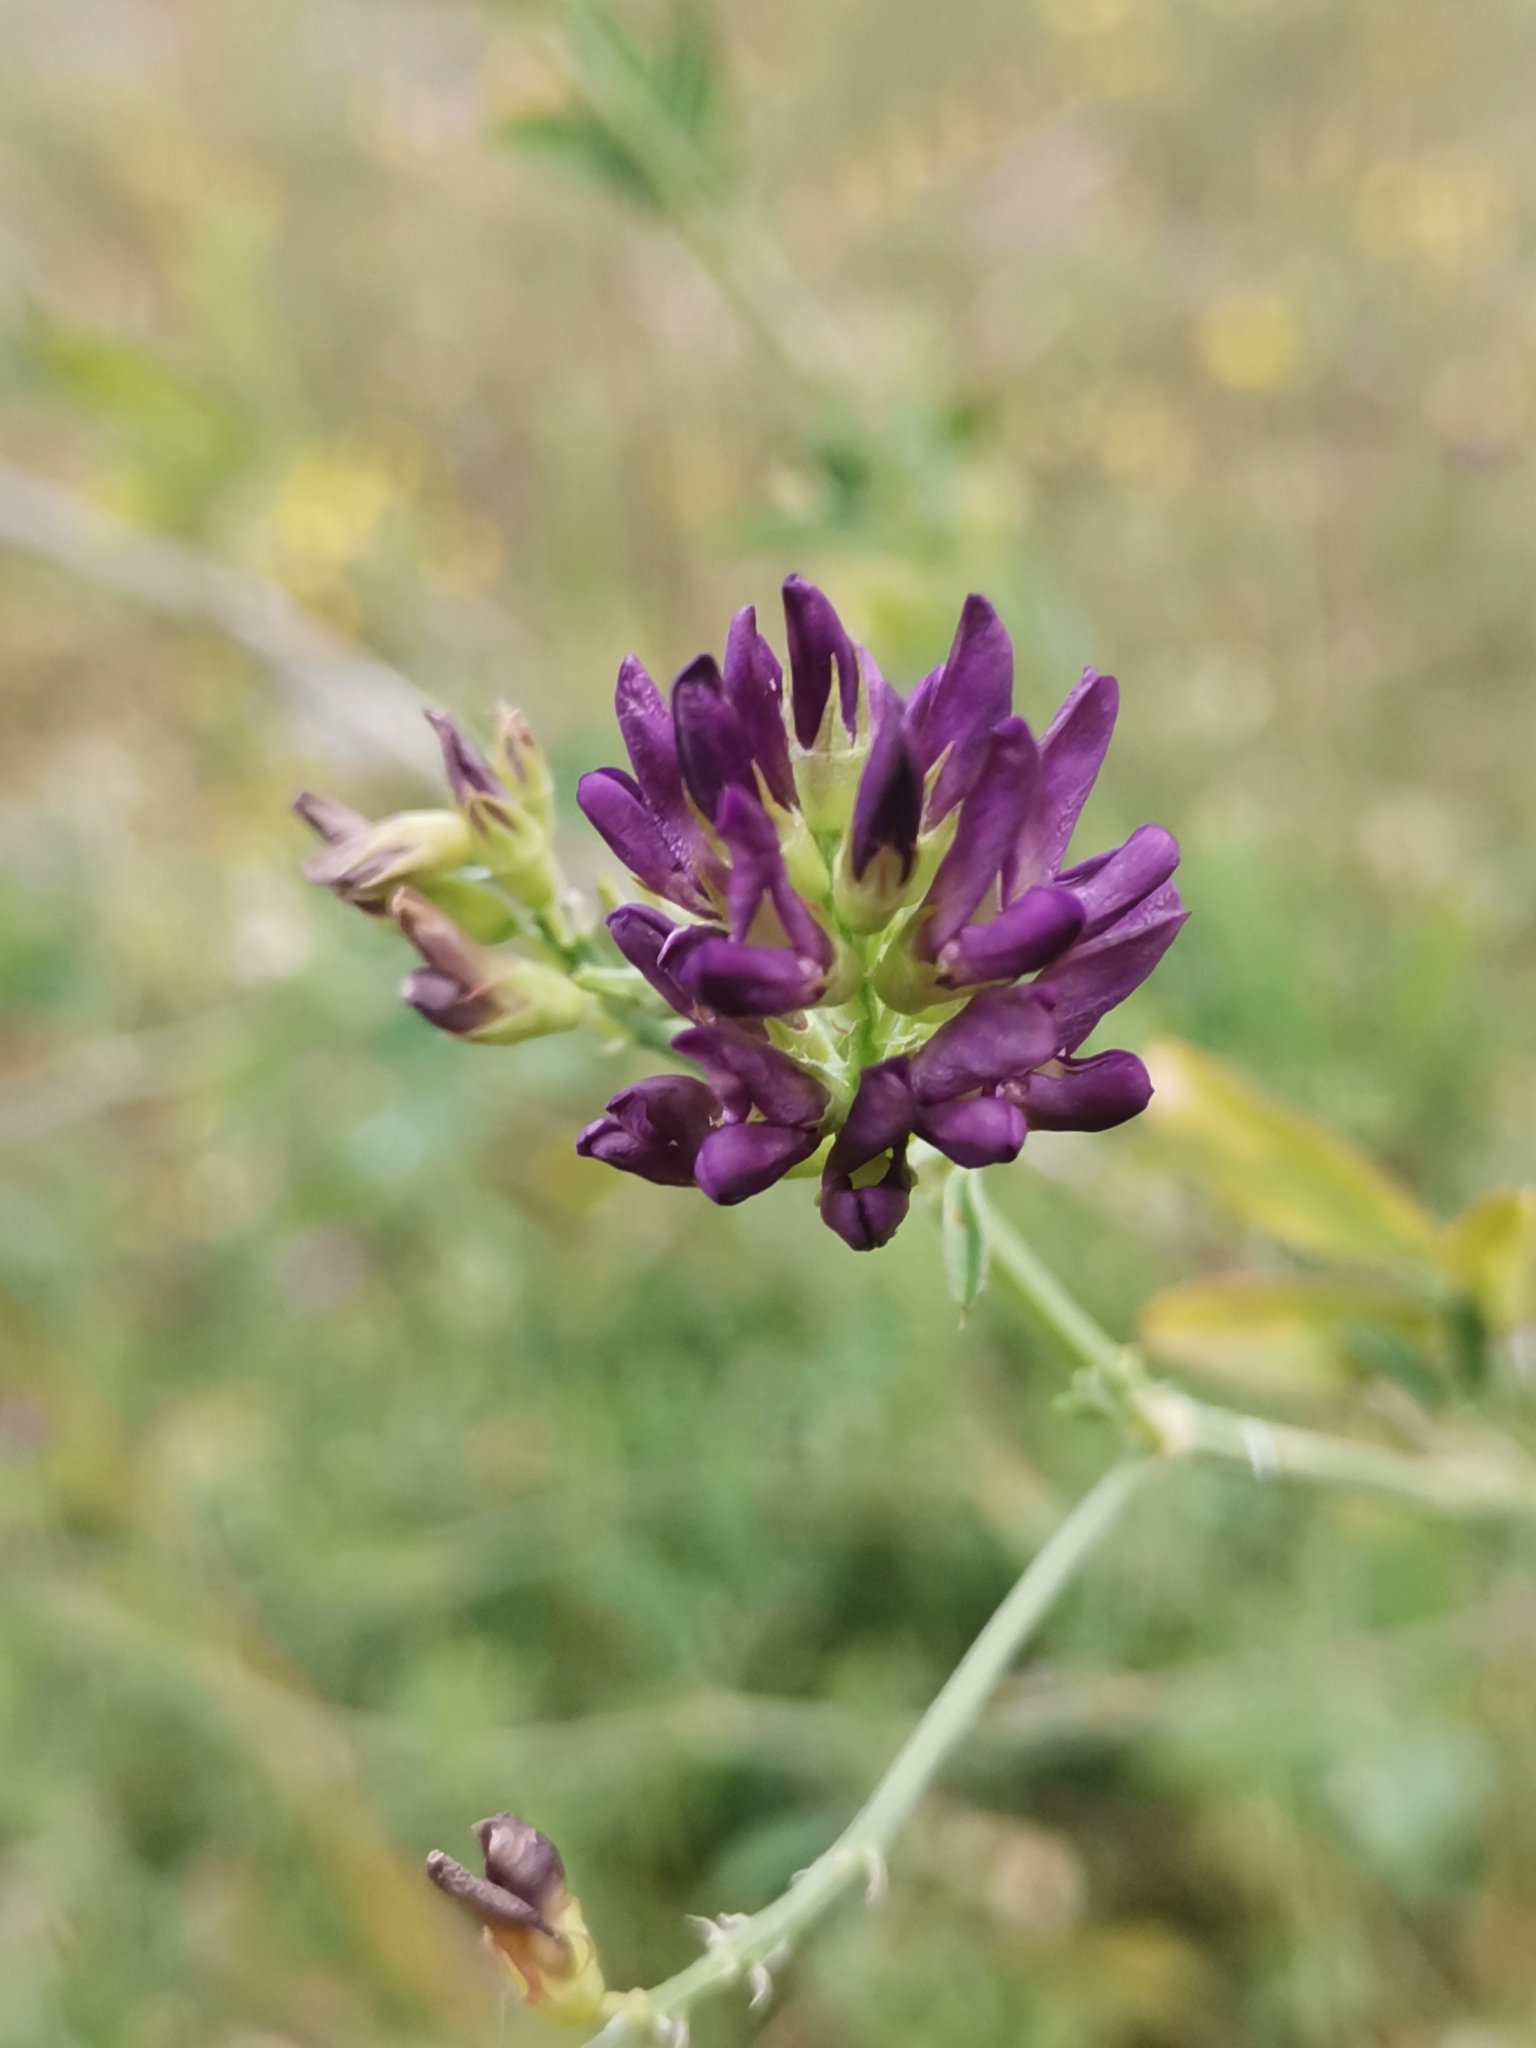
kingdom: Plantae
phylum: Tracheophyta
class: Magnoliopsida
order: Fabales
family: Fabaceae
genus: Medicago
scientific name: Medicago sativa
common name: Alfalfa
